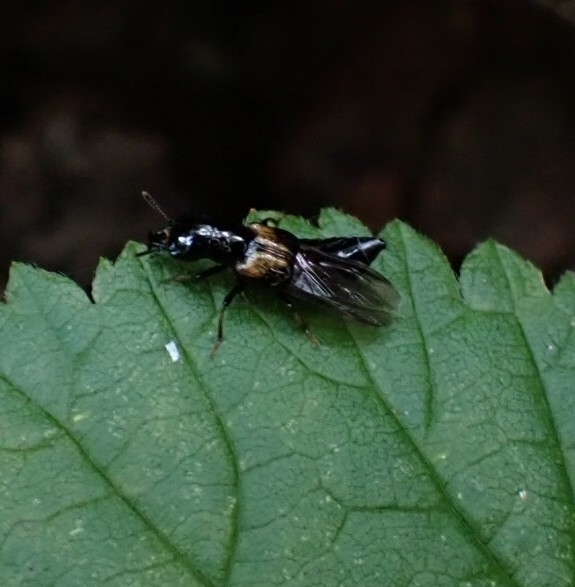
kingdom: Animalia
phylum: Arthropoda
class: Insecta
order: Coleoptera
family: Staphylinidae
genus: Oxyporus
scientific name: Oxyporus maxillosus
